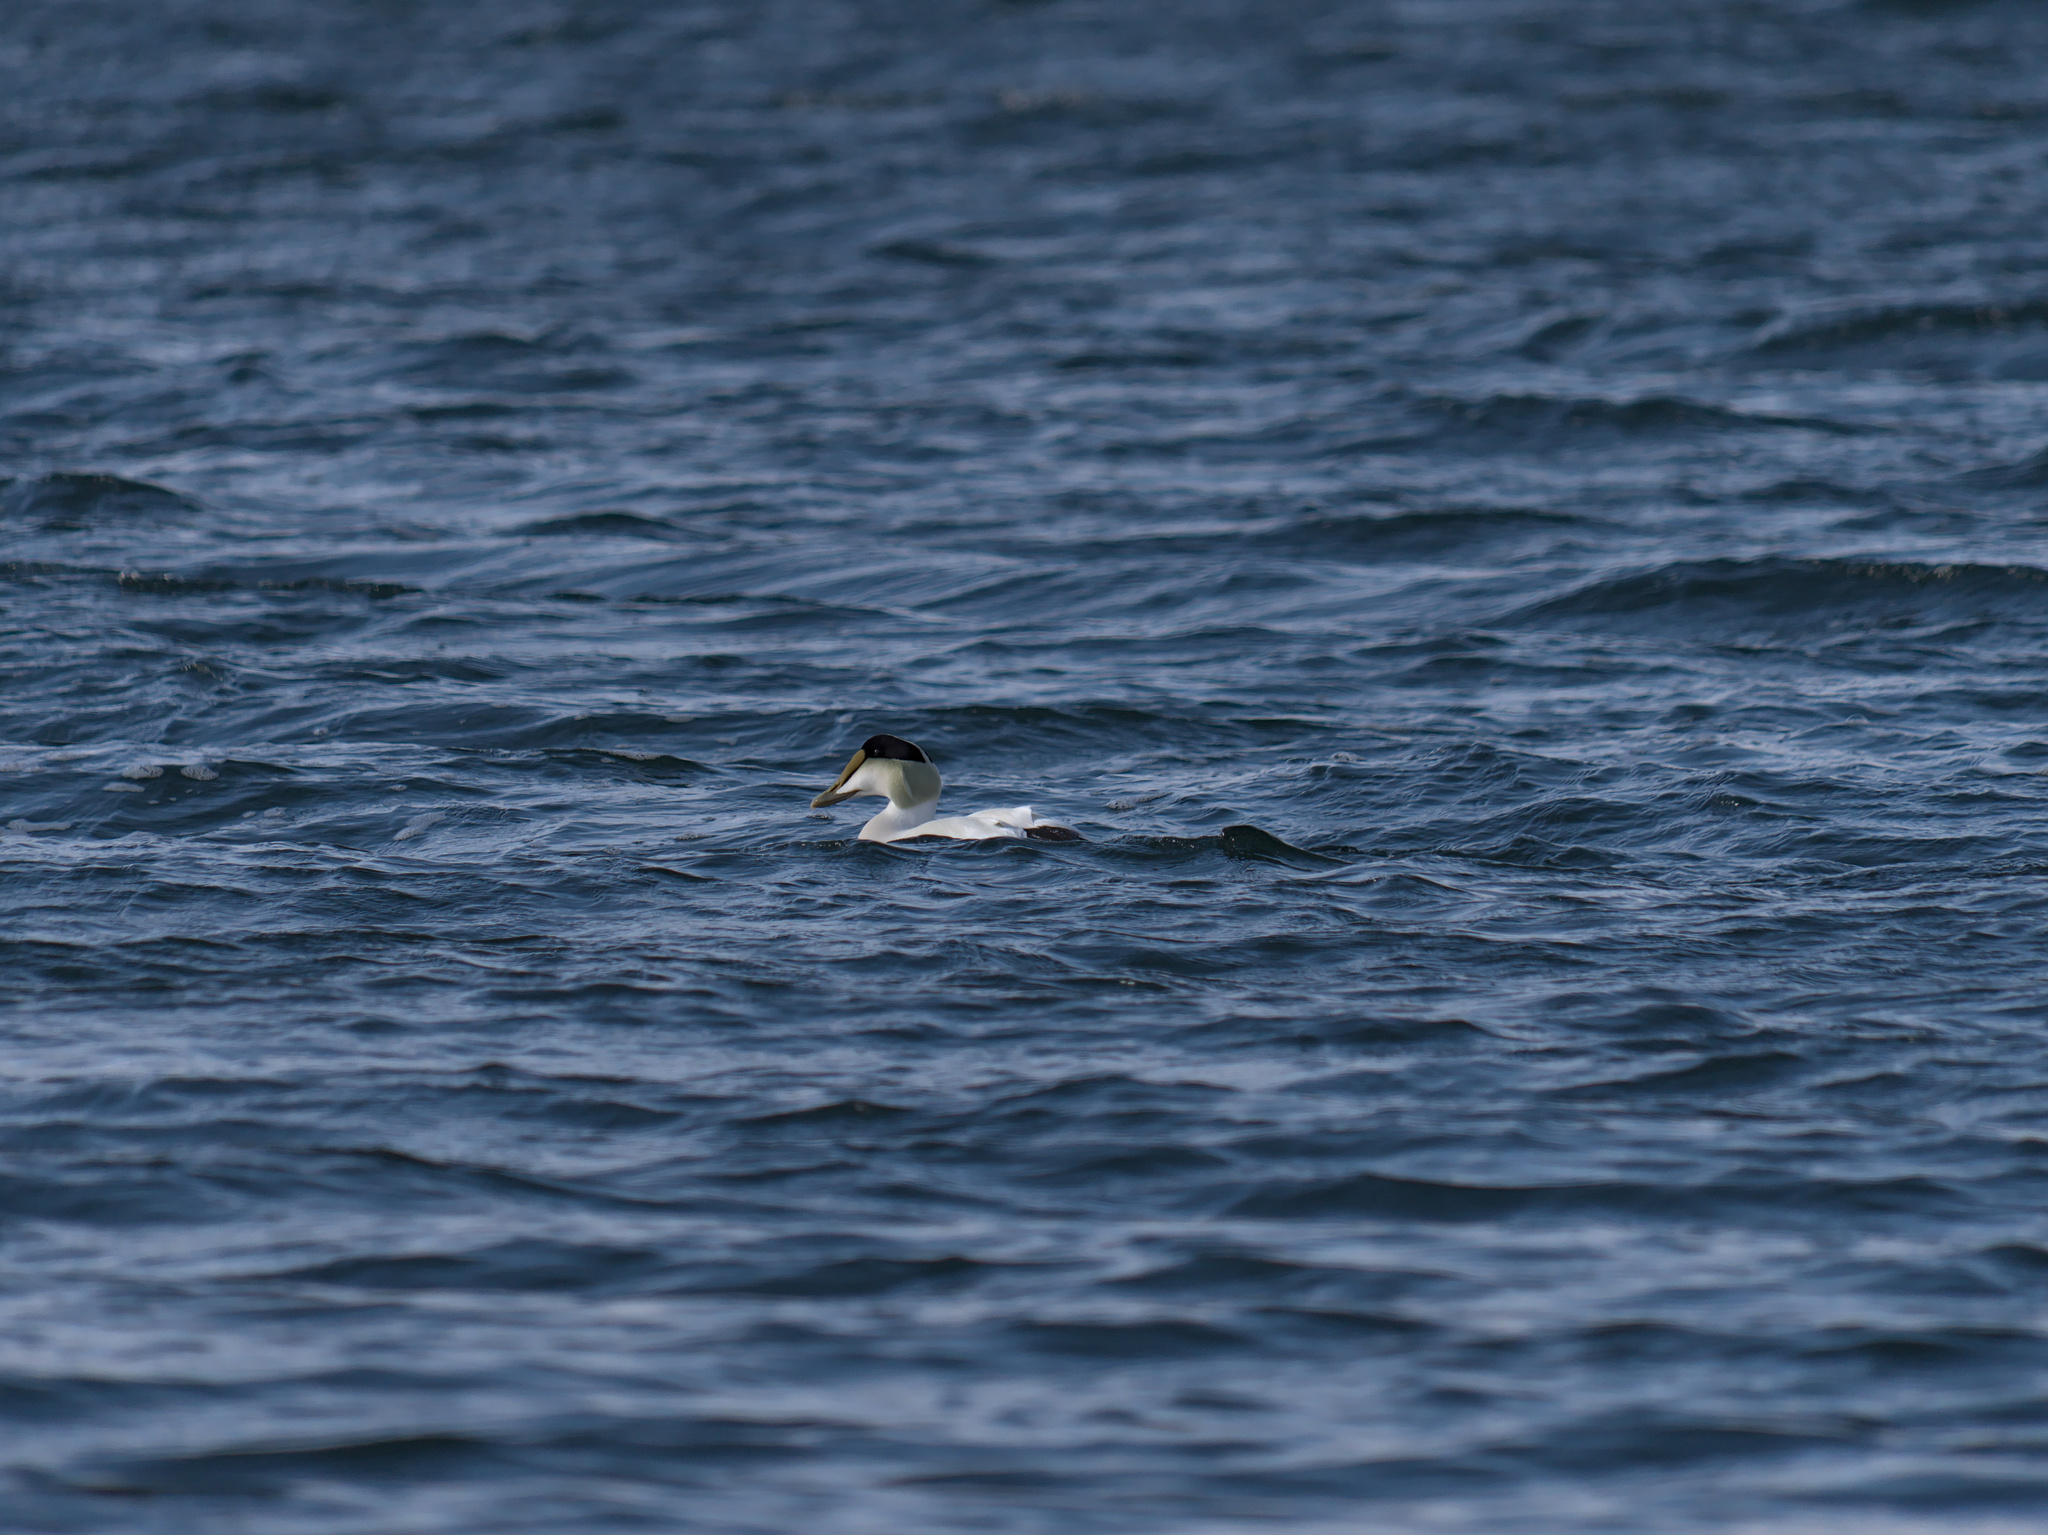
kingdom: Animalia
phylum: Chordata
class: Aves
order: Anseriformes
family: Anatidae
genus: Somateria
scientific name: Somateria mollissima
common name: Common eider
